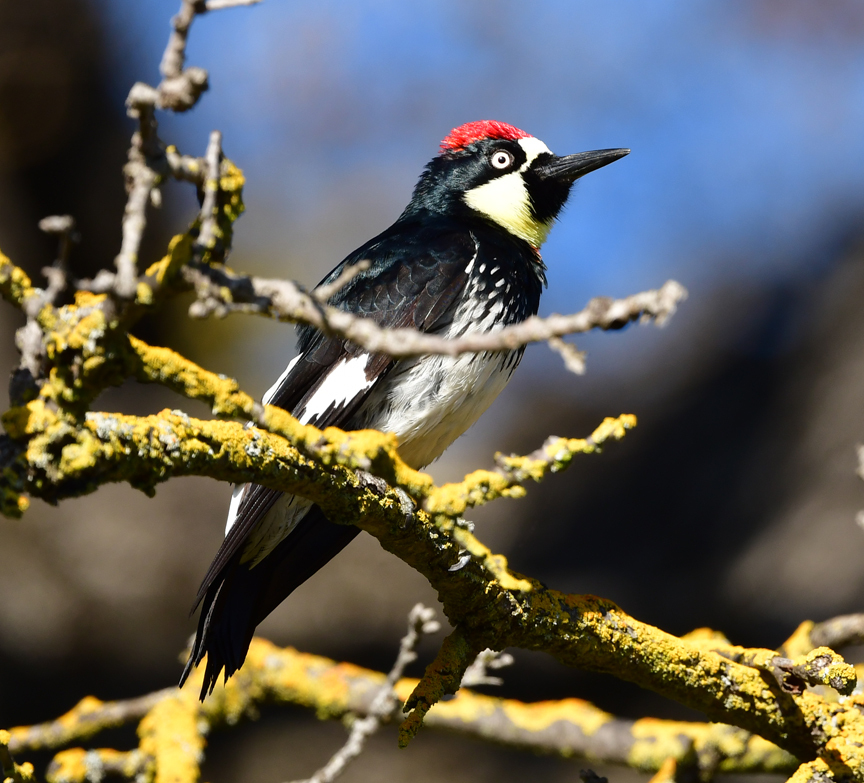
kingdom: Animalia
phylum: Chordata
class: Aves
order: Piciformes
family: Picidae
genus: Melanerpes
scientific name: Melanerpes formicivorus
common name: Acorn woodpecker
